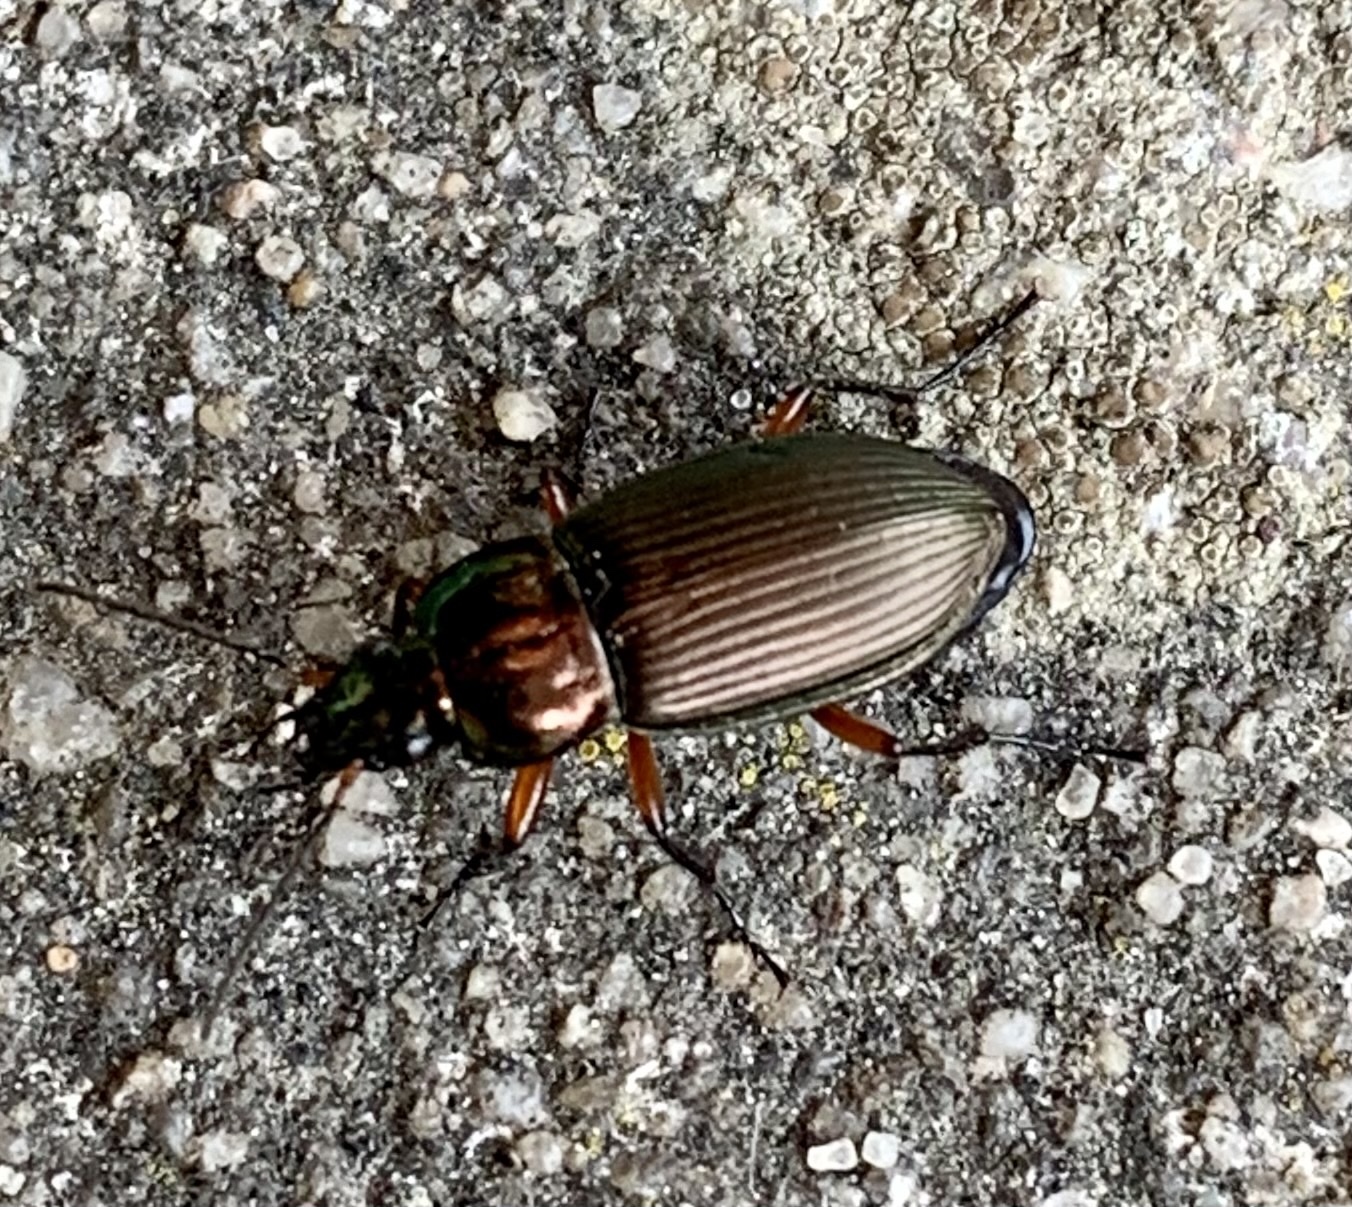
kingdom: Animalia
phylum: Arthropoda
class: Insecta
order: Coleoptera
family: Carabidae
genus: Poecilus
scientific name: Poecilus cupreus
